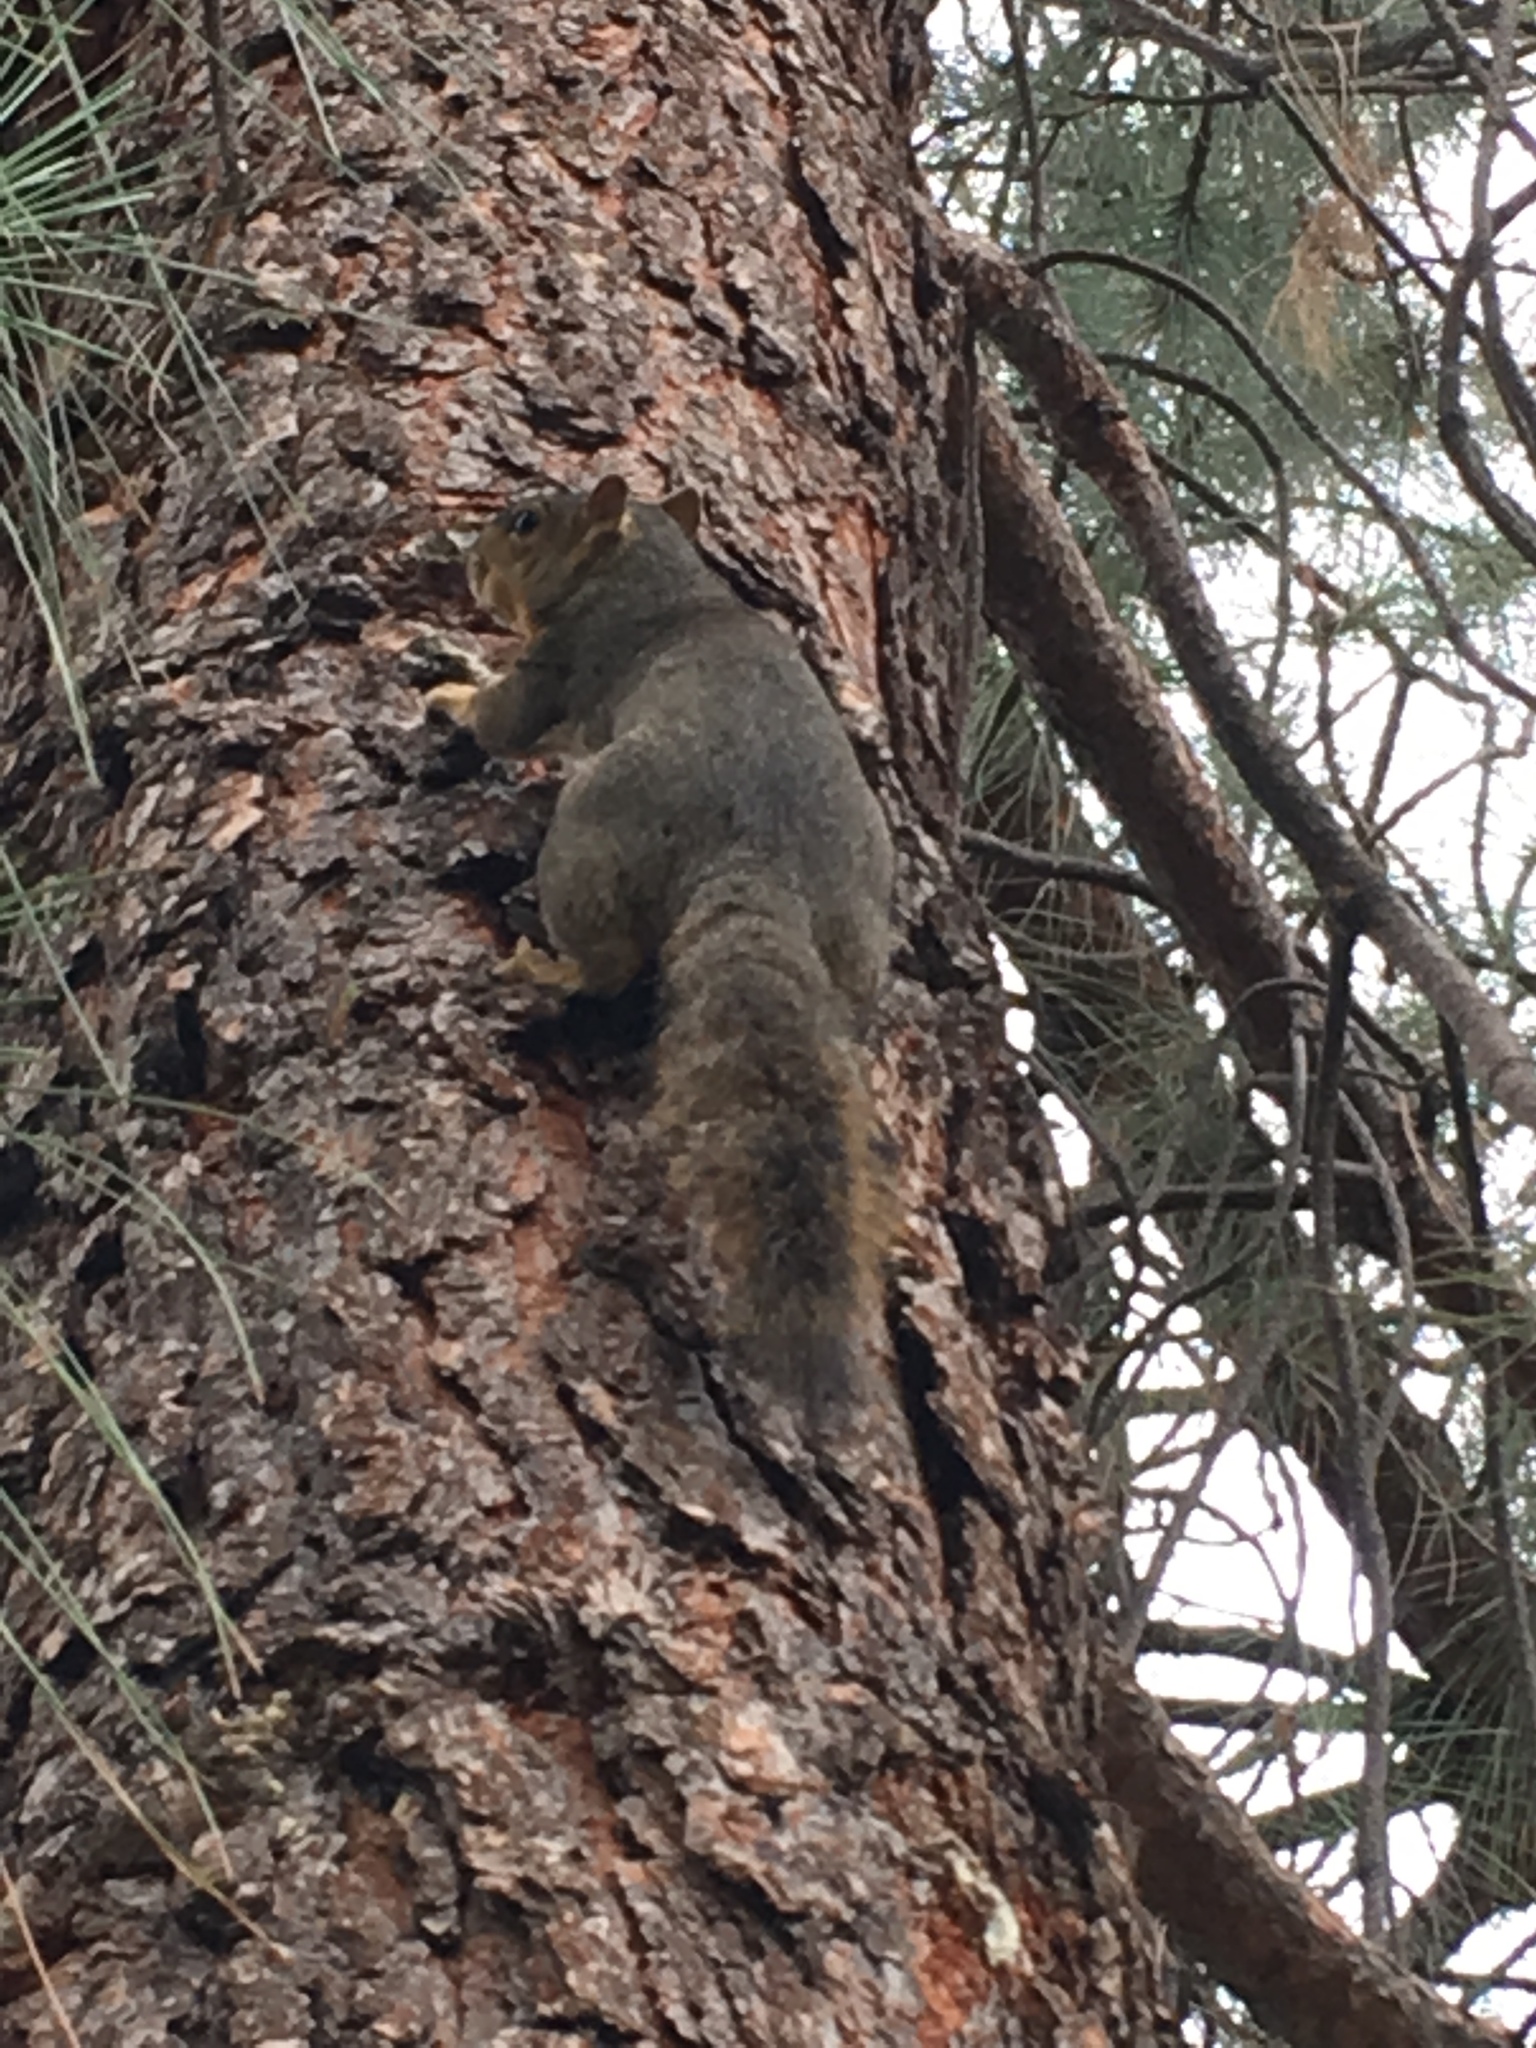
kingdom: Animalia
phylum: Chordata
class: Mammalia
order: Rodentia
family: Sciuridae
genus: Sciurus
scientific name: Sciurus niger
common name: Fox squirrel
